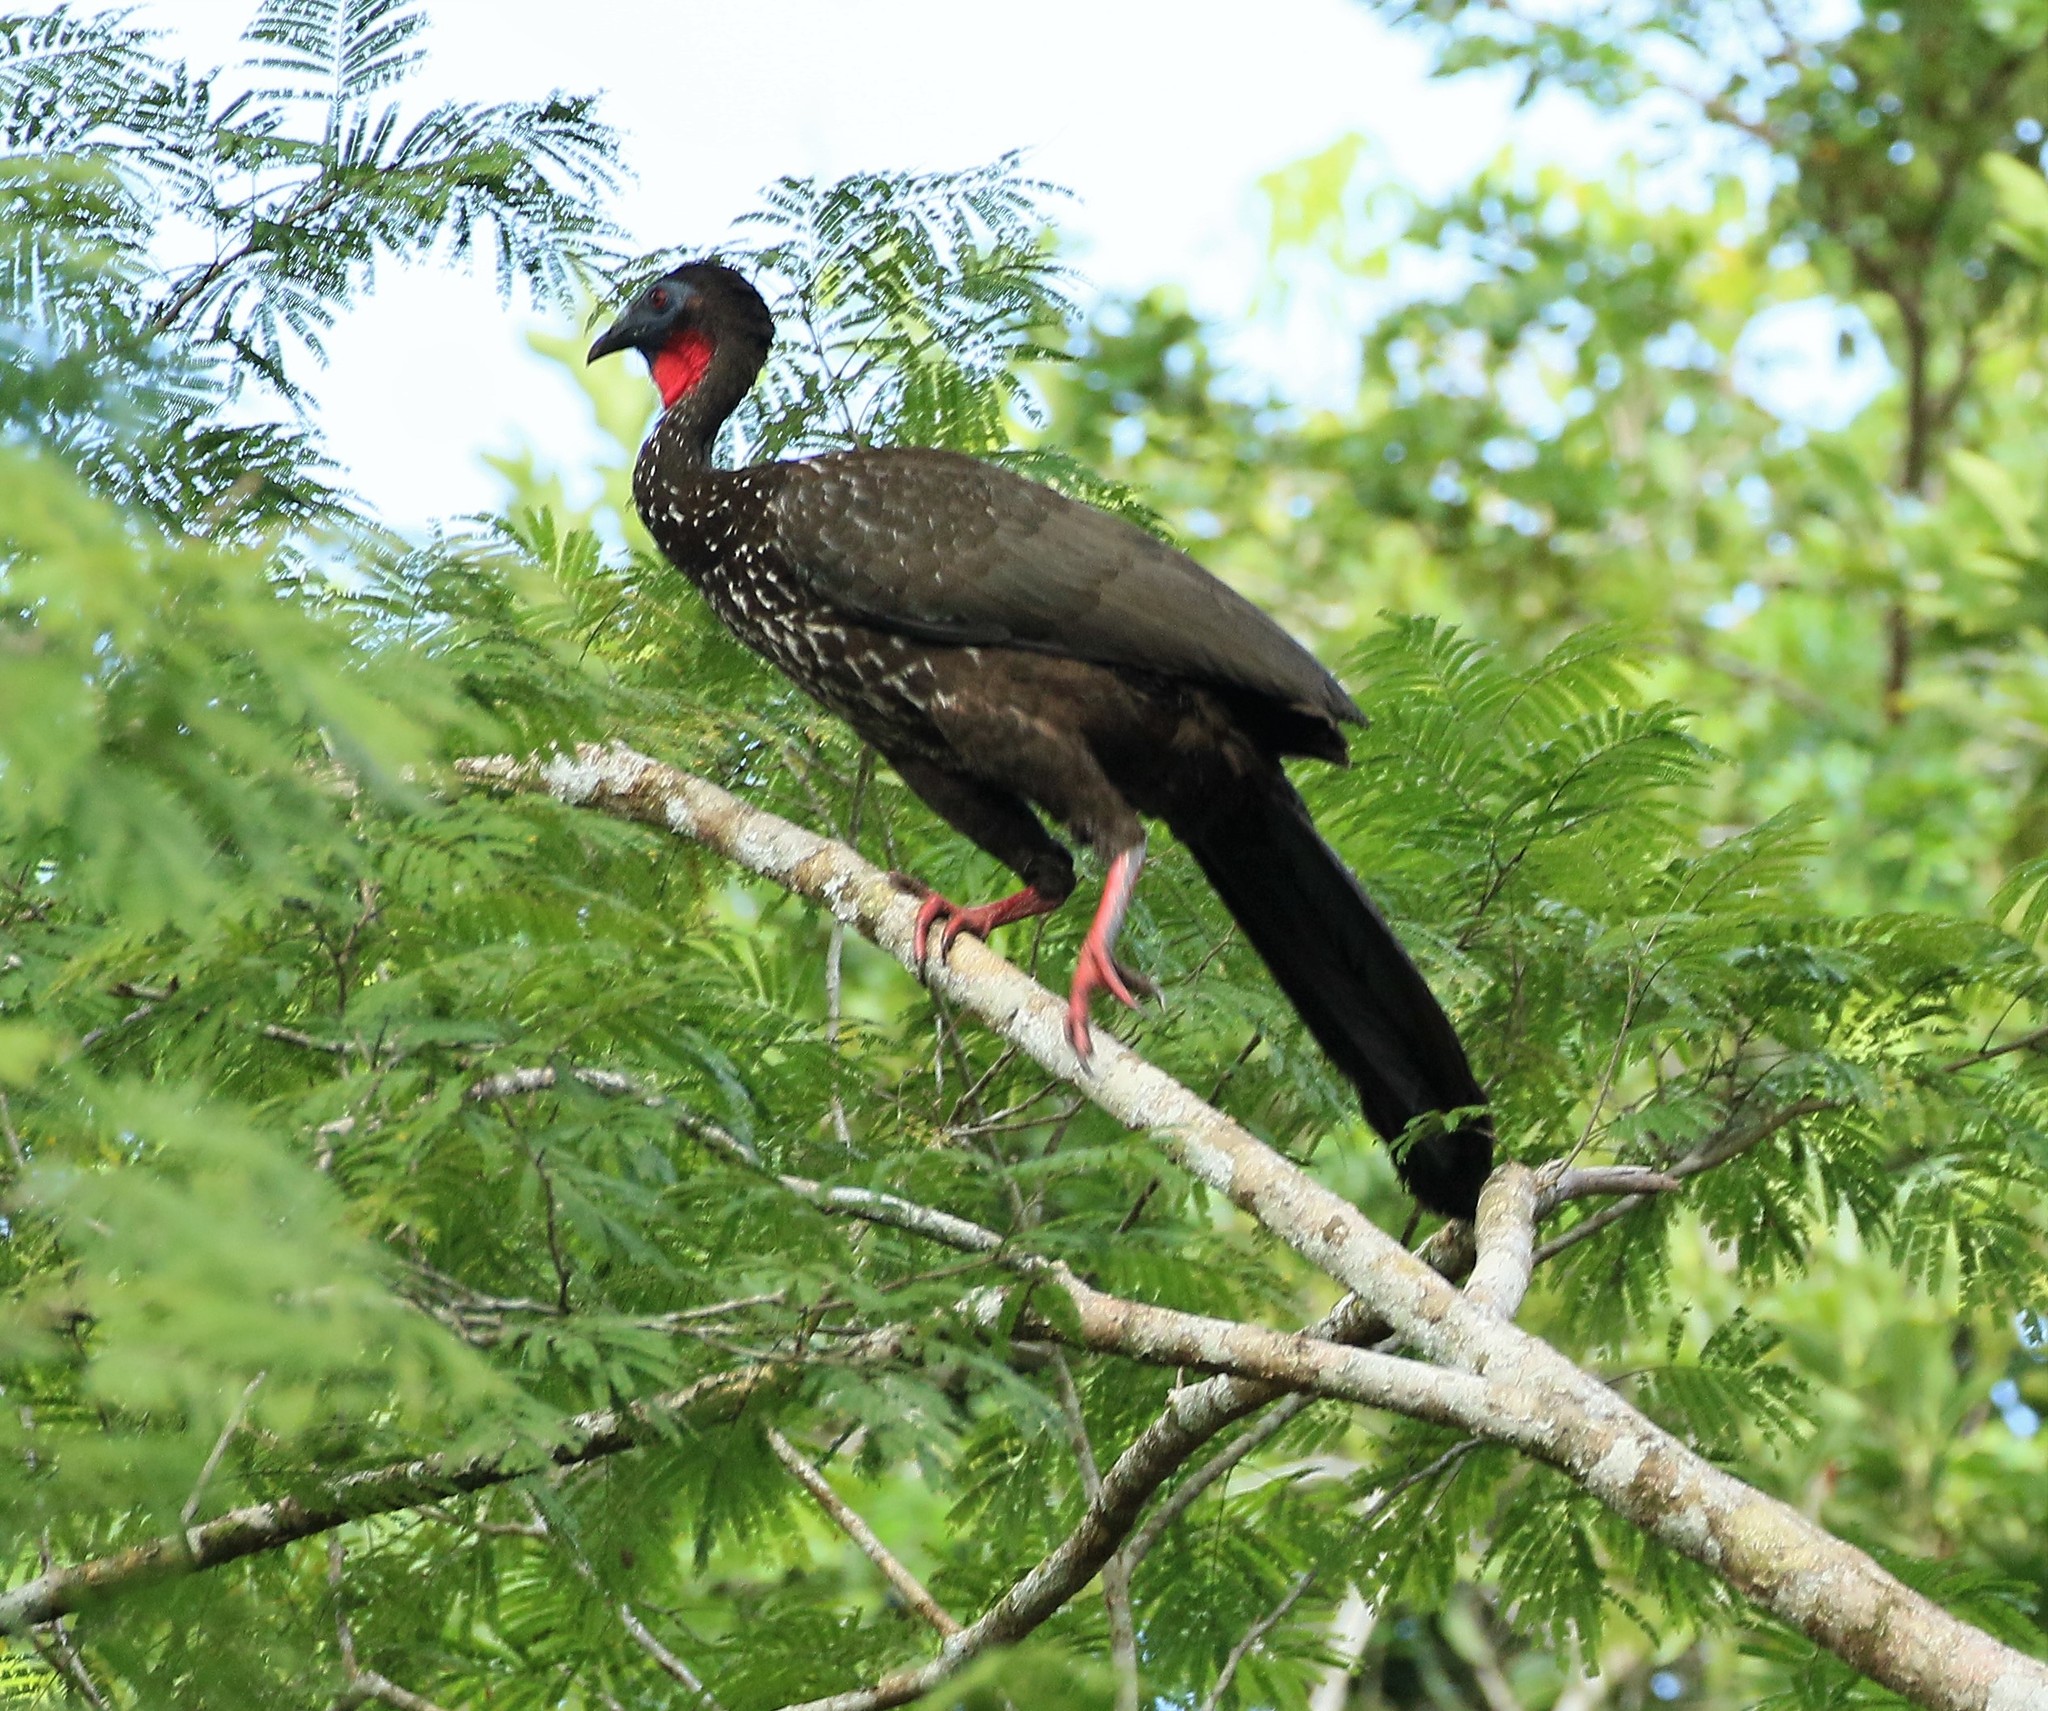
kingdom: Animalia
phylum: Chordata
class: Aves
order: Galliformes
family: Cracidae
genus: Penelope
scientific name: Penelope purpurascens
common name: Crested guan
